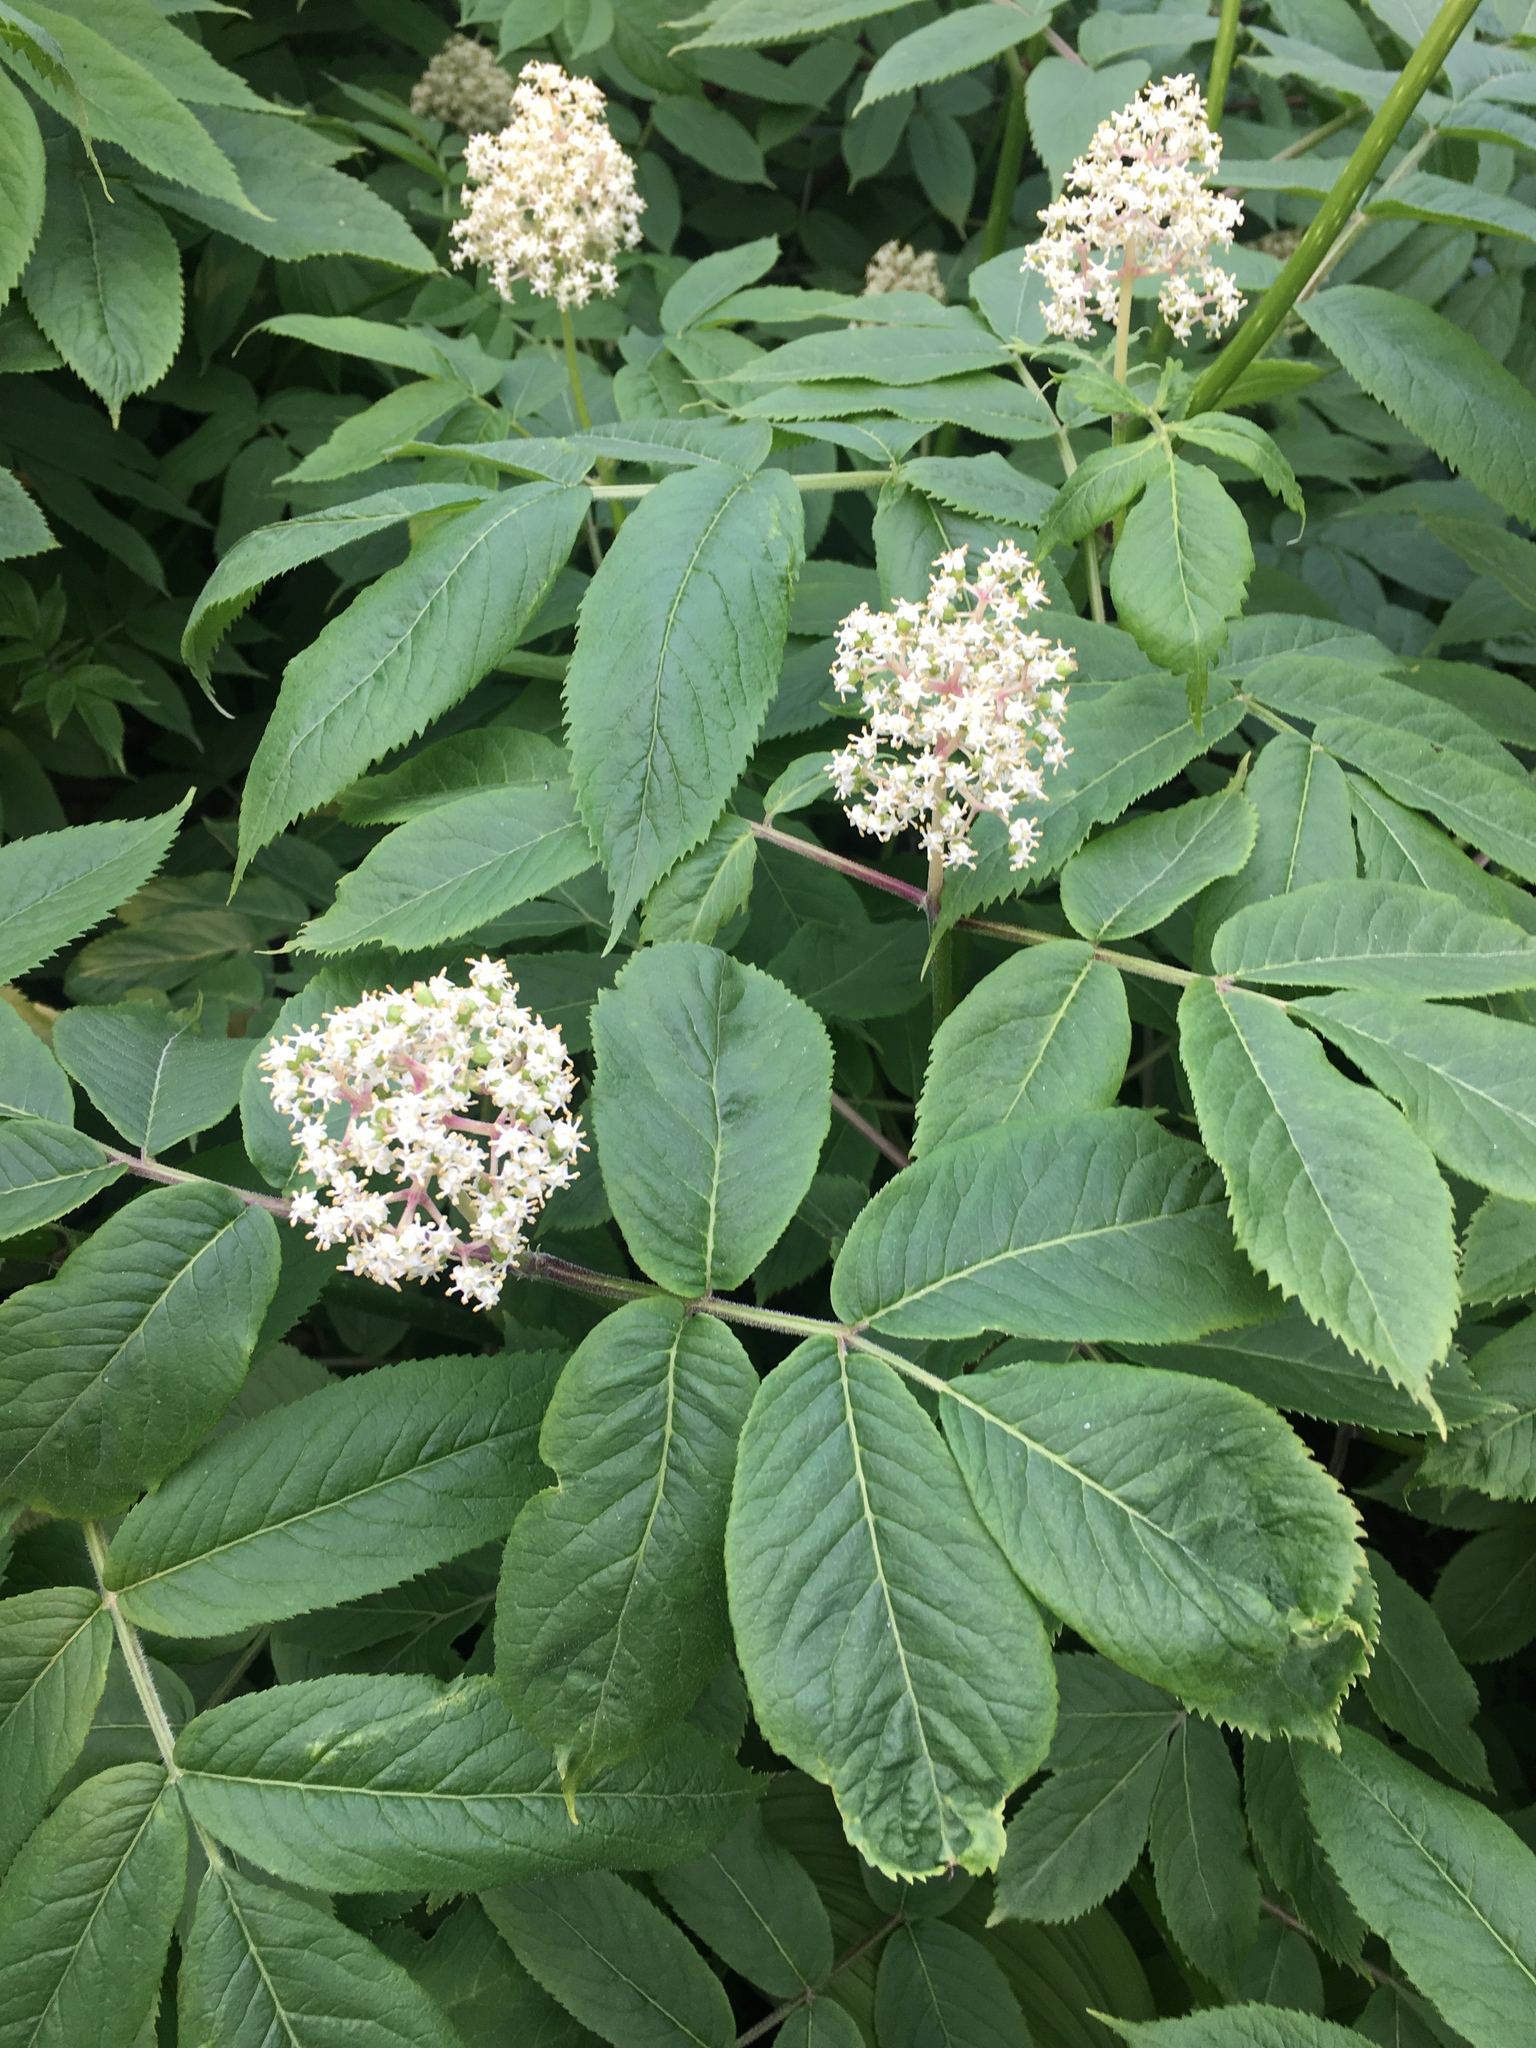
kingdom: Plantae
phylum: Tracheophyta
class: Magnoliopsida
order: Dipsacales
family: Viburnaceae
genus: Sambucus
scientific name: Sambucus racemosa
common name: Red-berried elder
